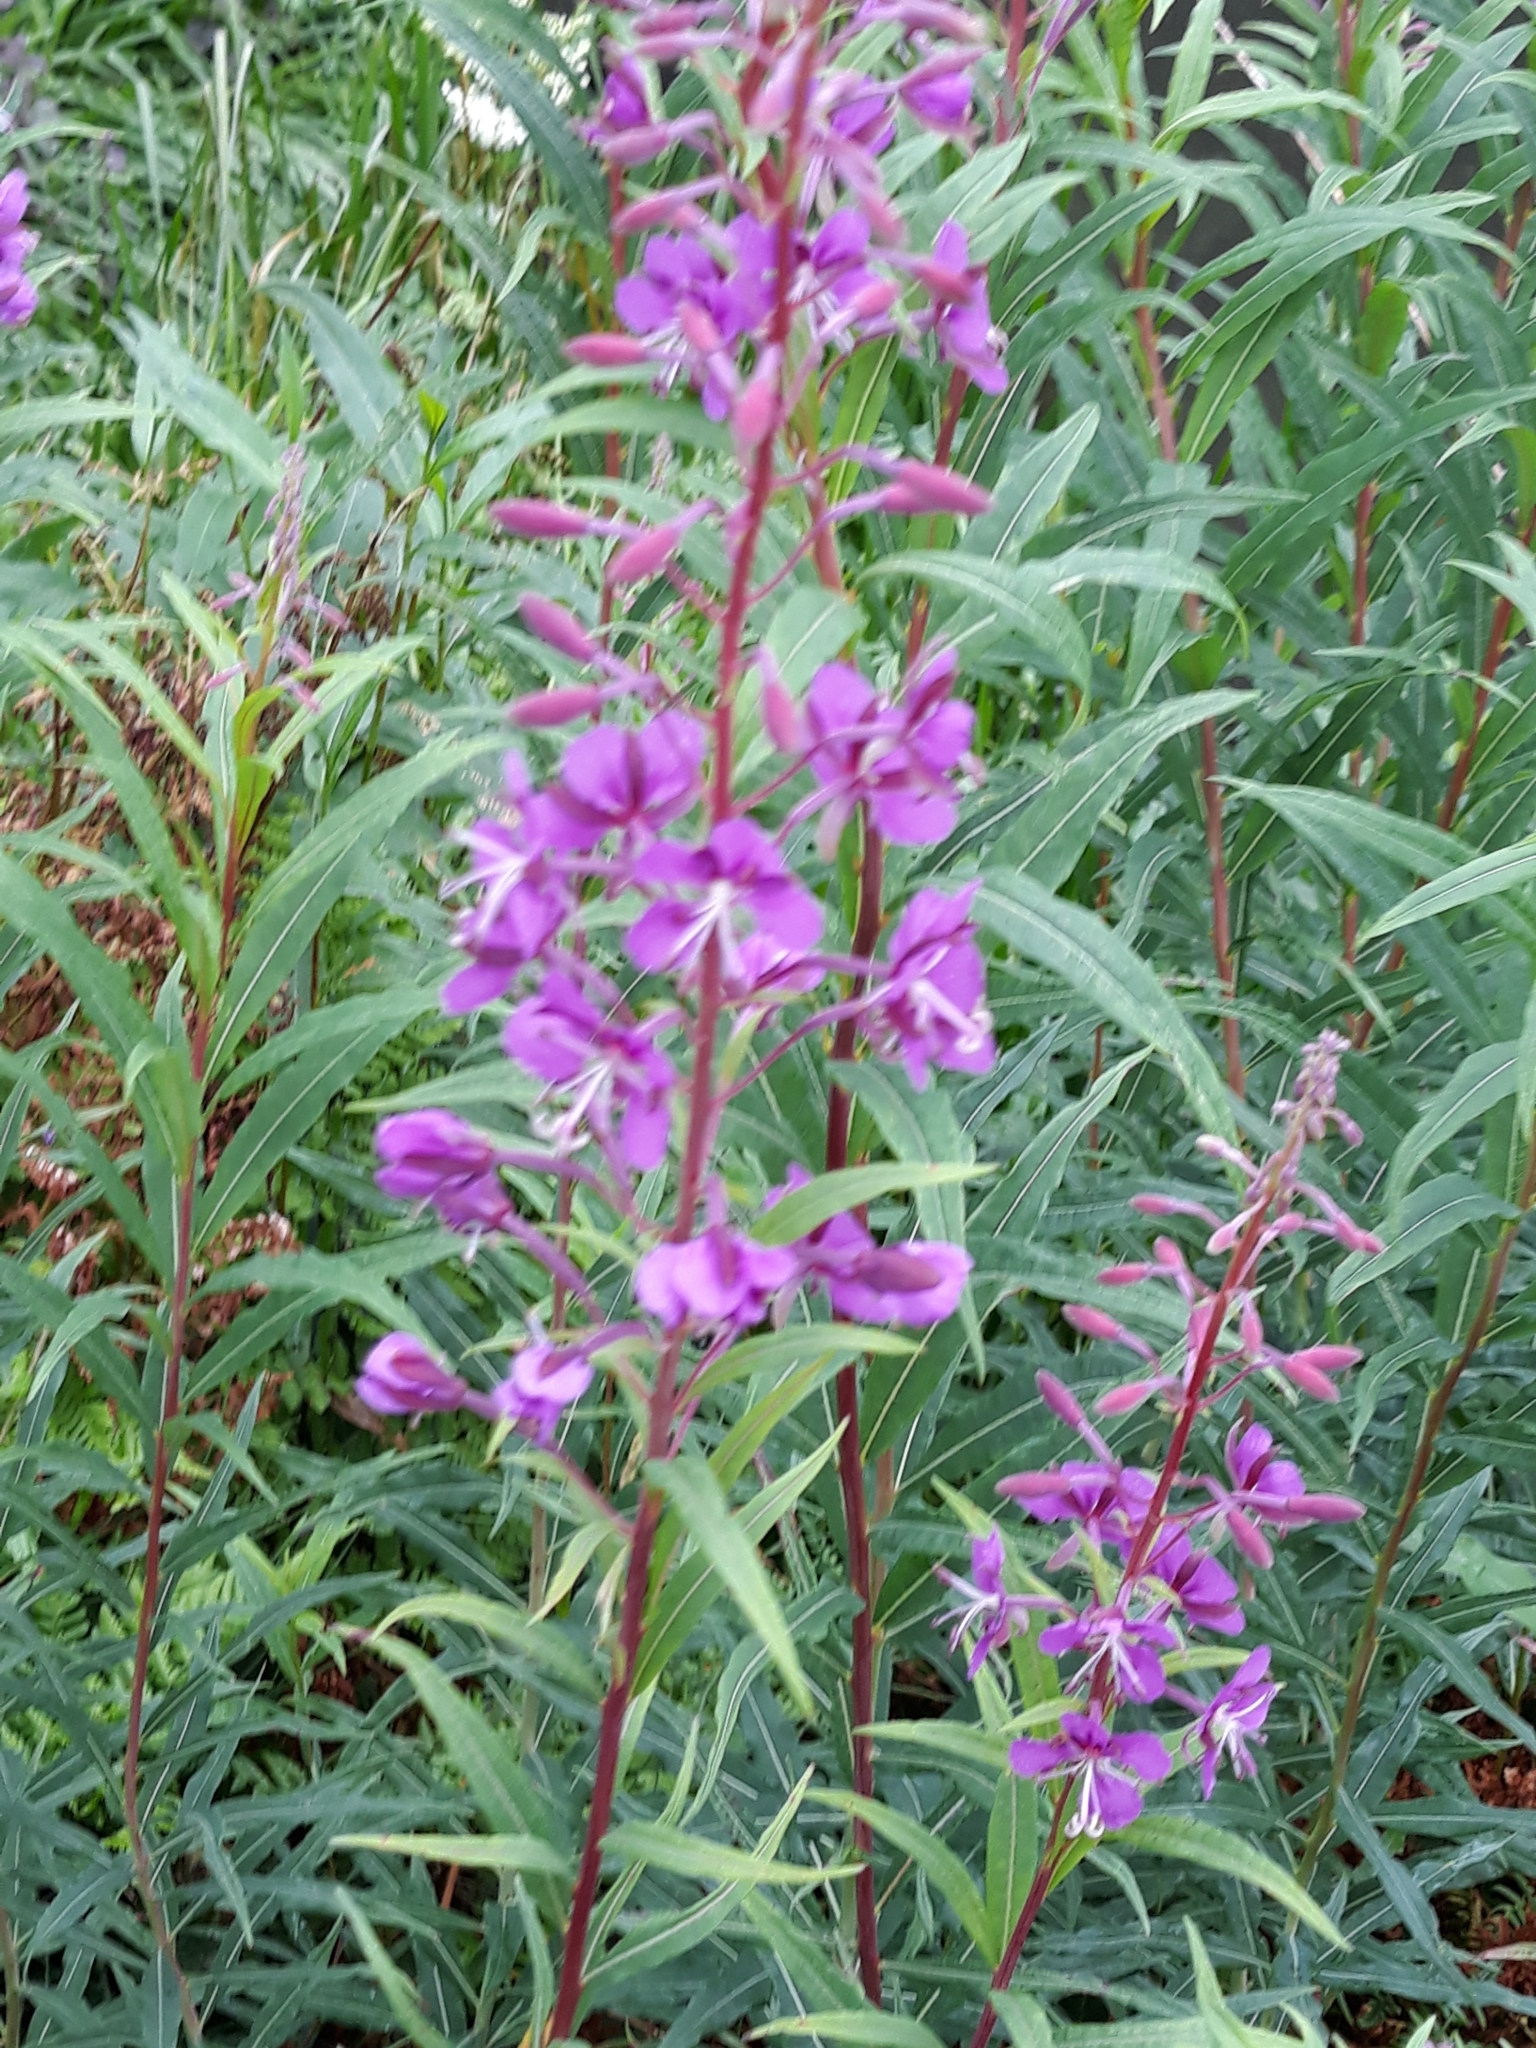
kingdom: Plantae
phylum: Tracheophyta
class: Magnoliopsida
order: Myrtales
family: Onagraceae
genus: Chamaenerion
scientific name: Chamaenerion angustifolium
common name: Fireweed
